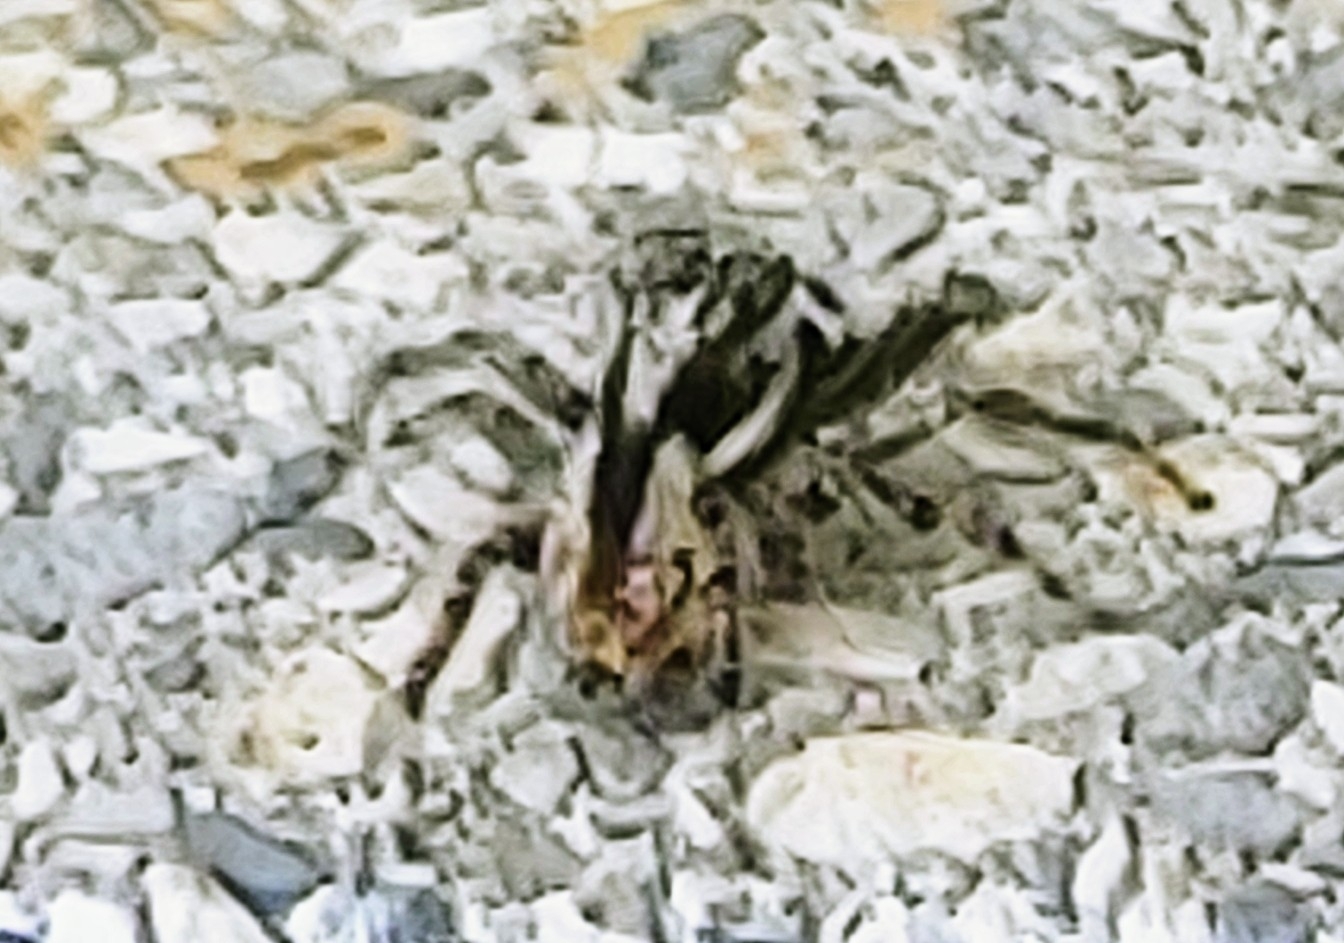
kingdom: Animalia
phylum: Arthropoda
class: Arachnida
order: Araneae
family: Salticidae
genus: Menemerus
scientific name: Menemerus bivittatus
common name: Gray wall jumper
